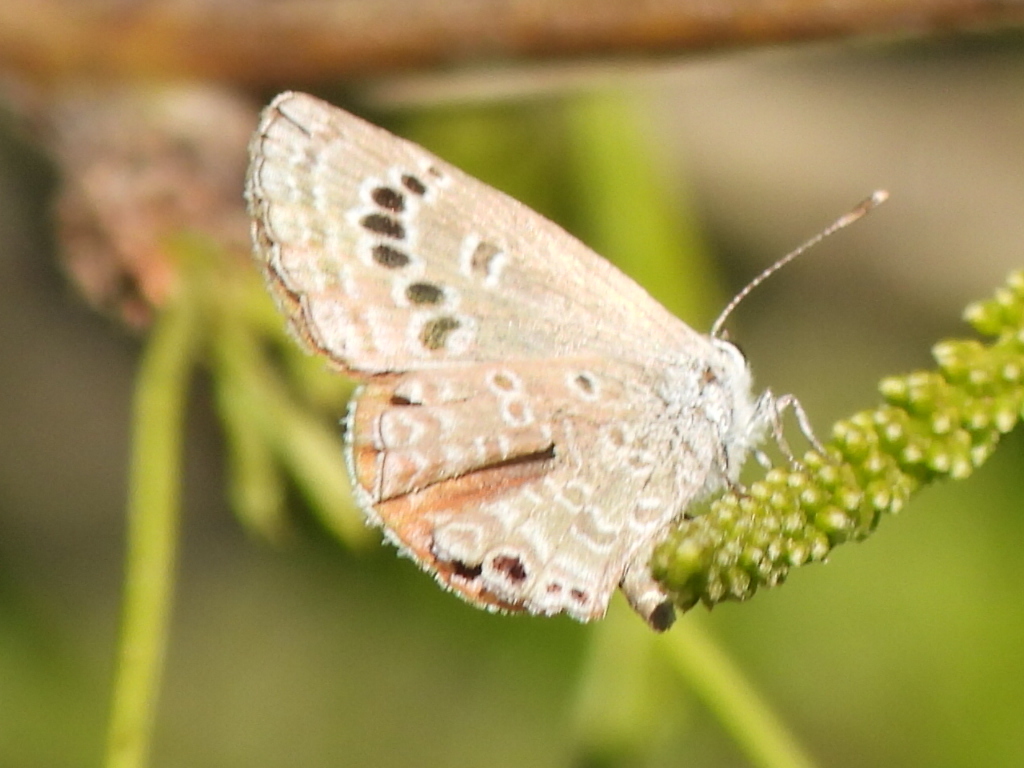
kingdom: Animalia
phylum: Arthropoda
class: Insecta
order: Lepidoptera
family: Lycaenidae
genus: Echinargus
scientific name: Echinargus isola
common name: Reakirt's blue
